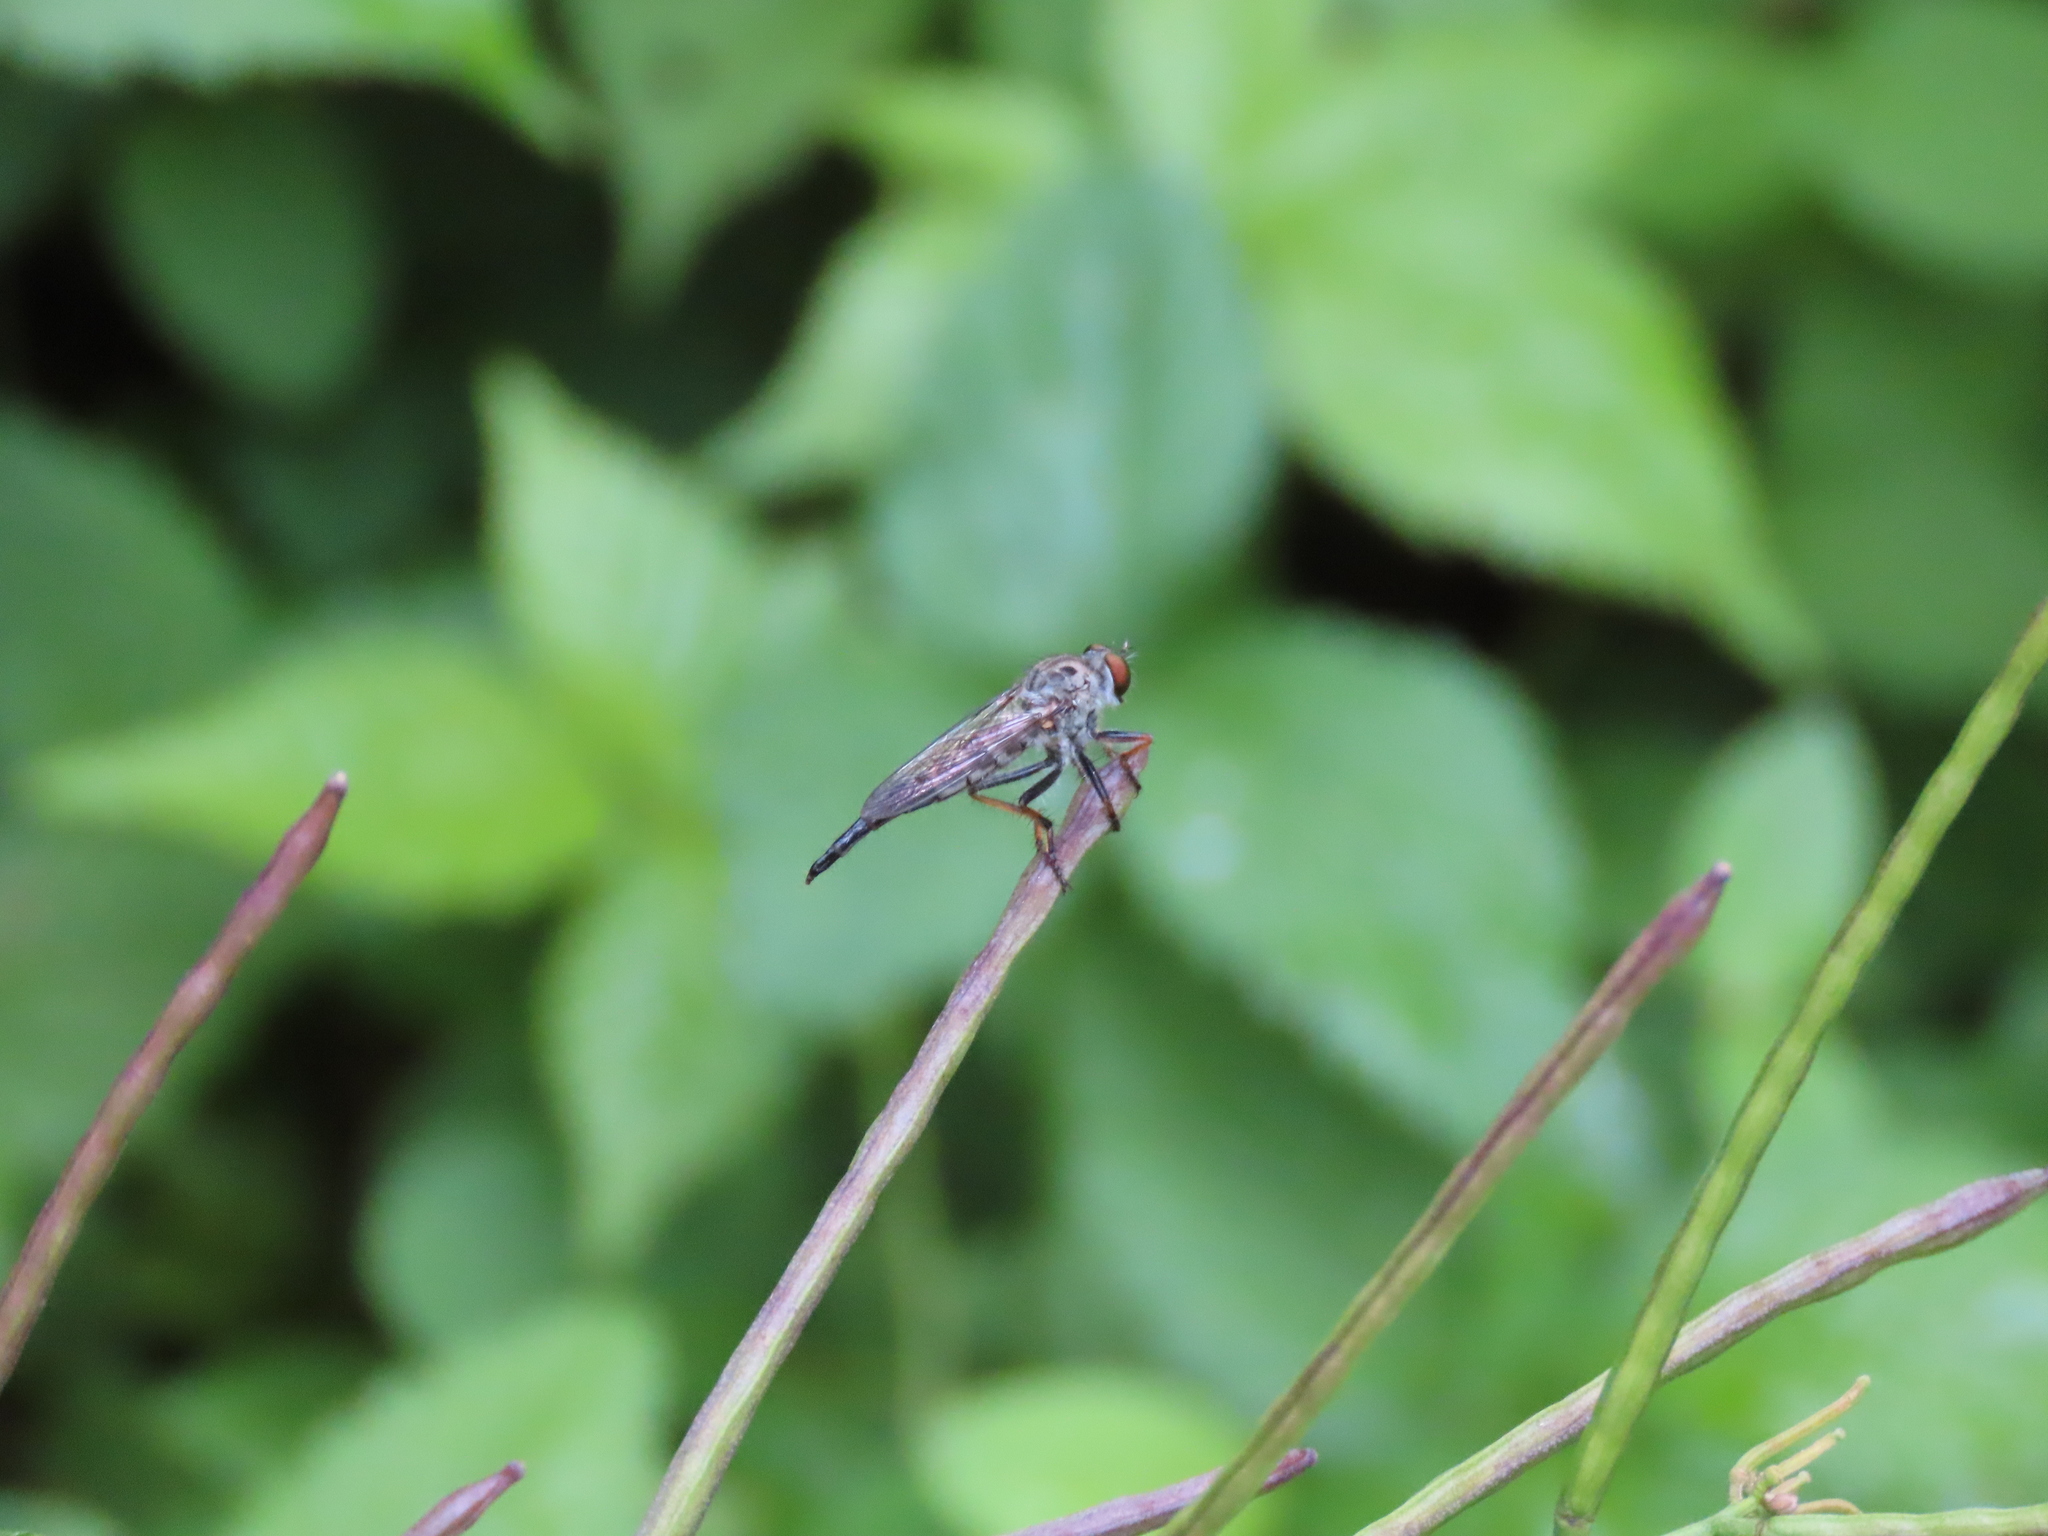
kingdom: Animalia
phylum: Arthropoda
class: Insecta
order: Diptera
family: Asilidae
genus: Asilus
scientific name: Asilus flavofemoratus
